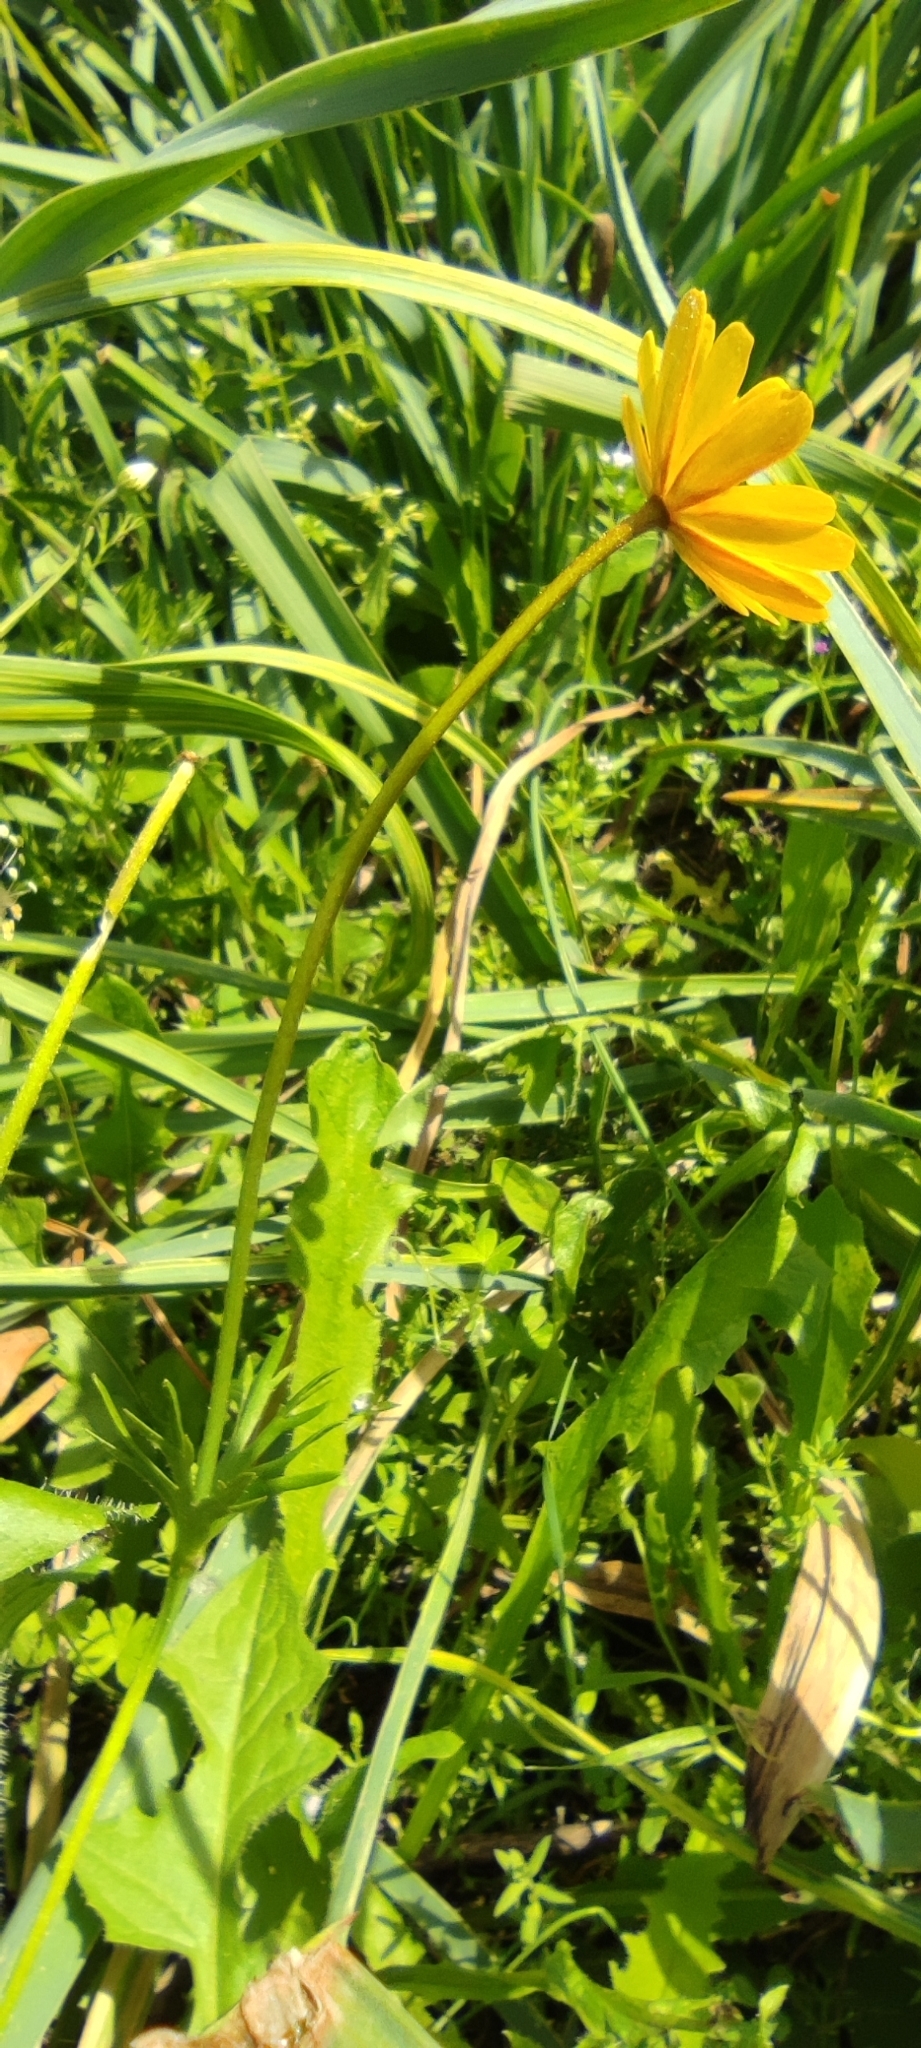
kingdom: Plantae
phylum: Tracheophyta
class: Magnoliopsida
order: Ranunculales
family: Ranunculaceae
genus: Anemone
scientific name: Anemone palmata
